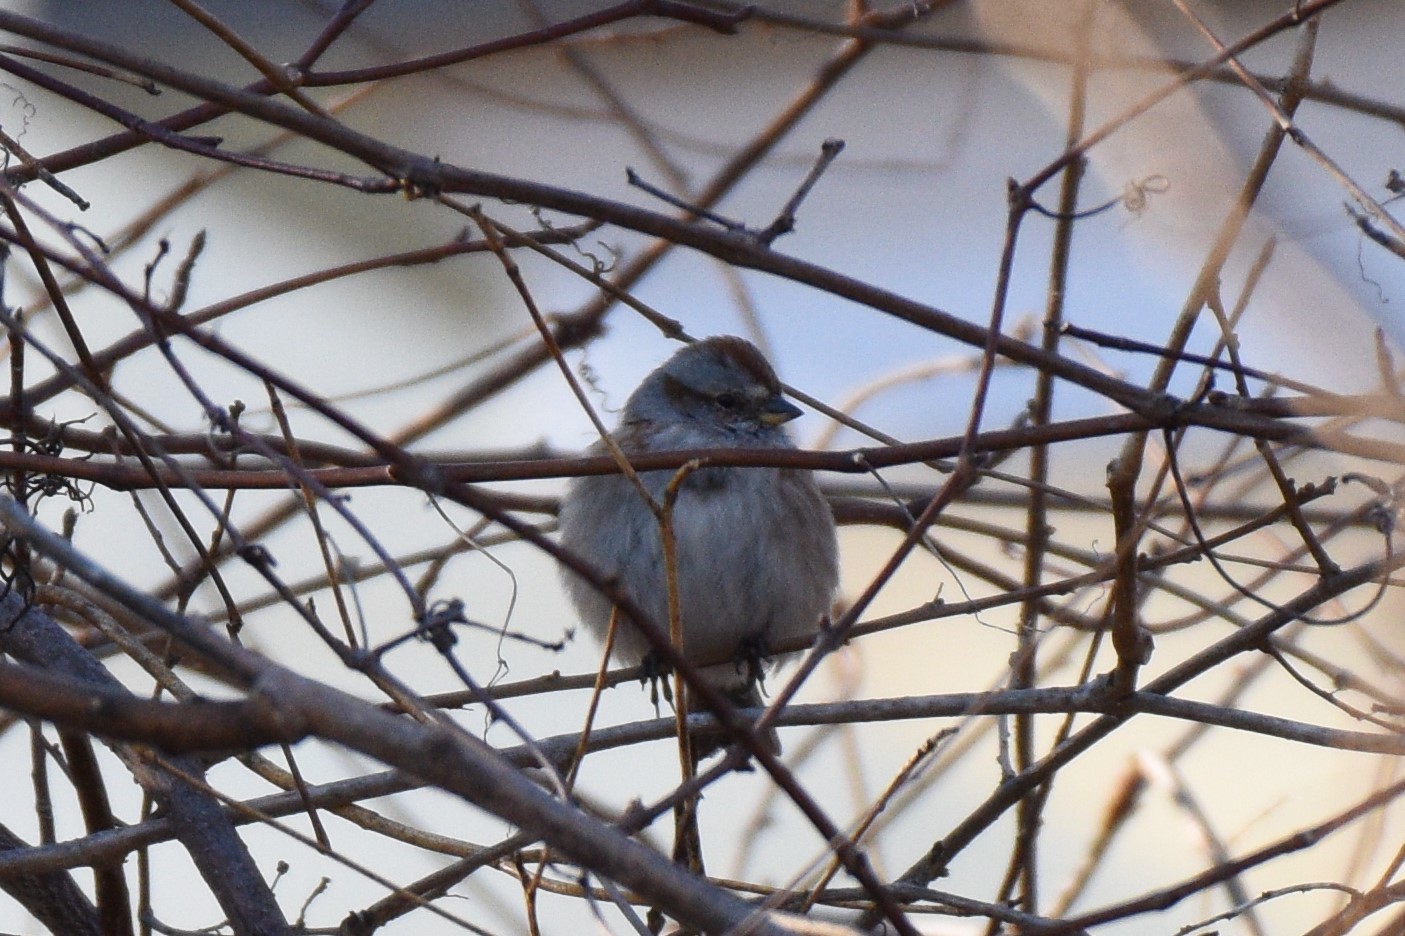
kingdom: Animalia
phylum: Chordata
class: Aves
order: Passeriformes
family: Passerellidae
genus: Spizelloides
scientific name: Spizelloides arborea
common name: American tree sparrow
